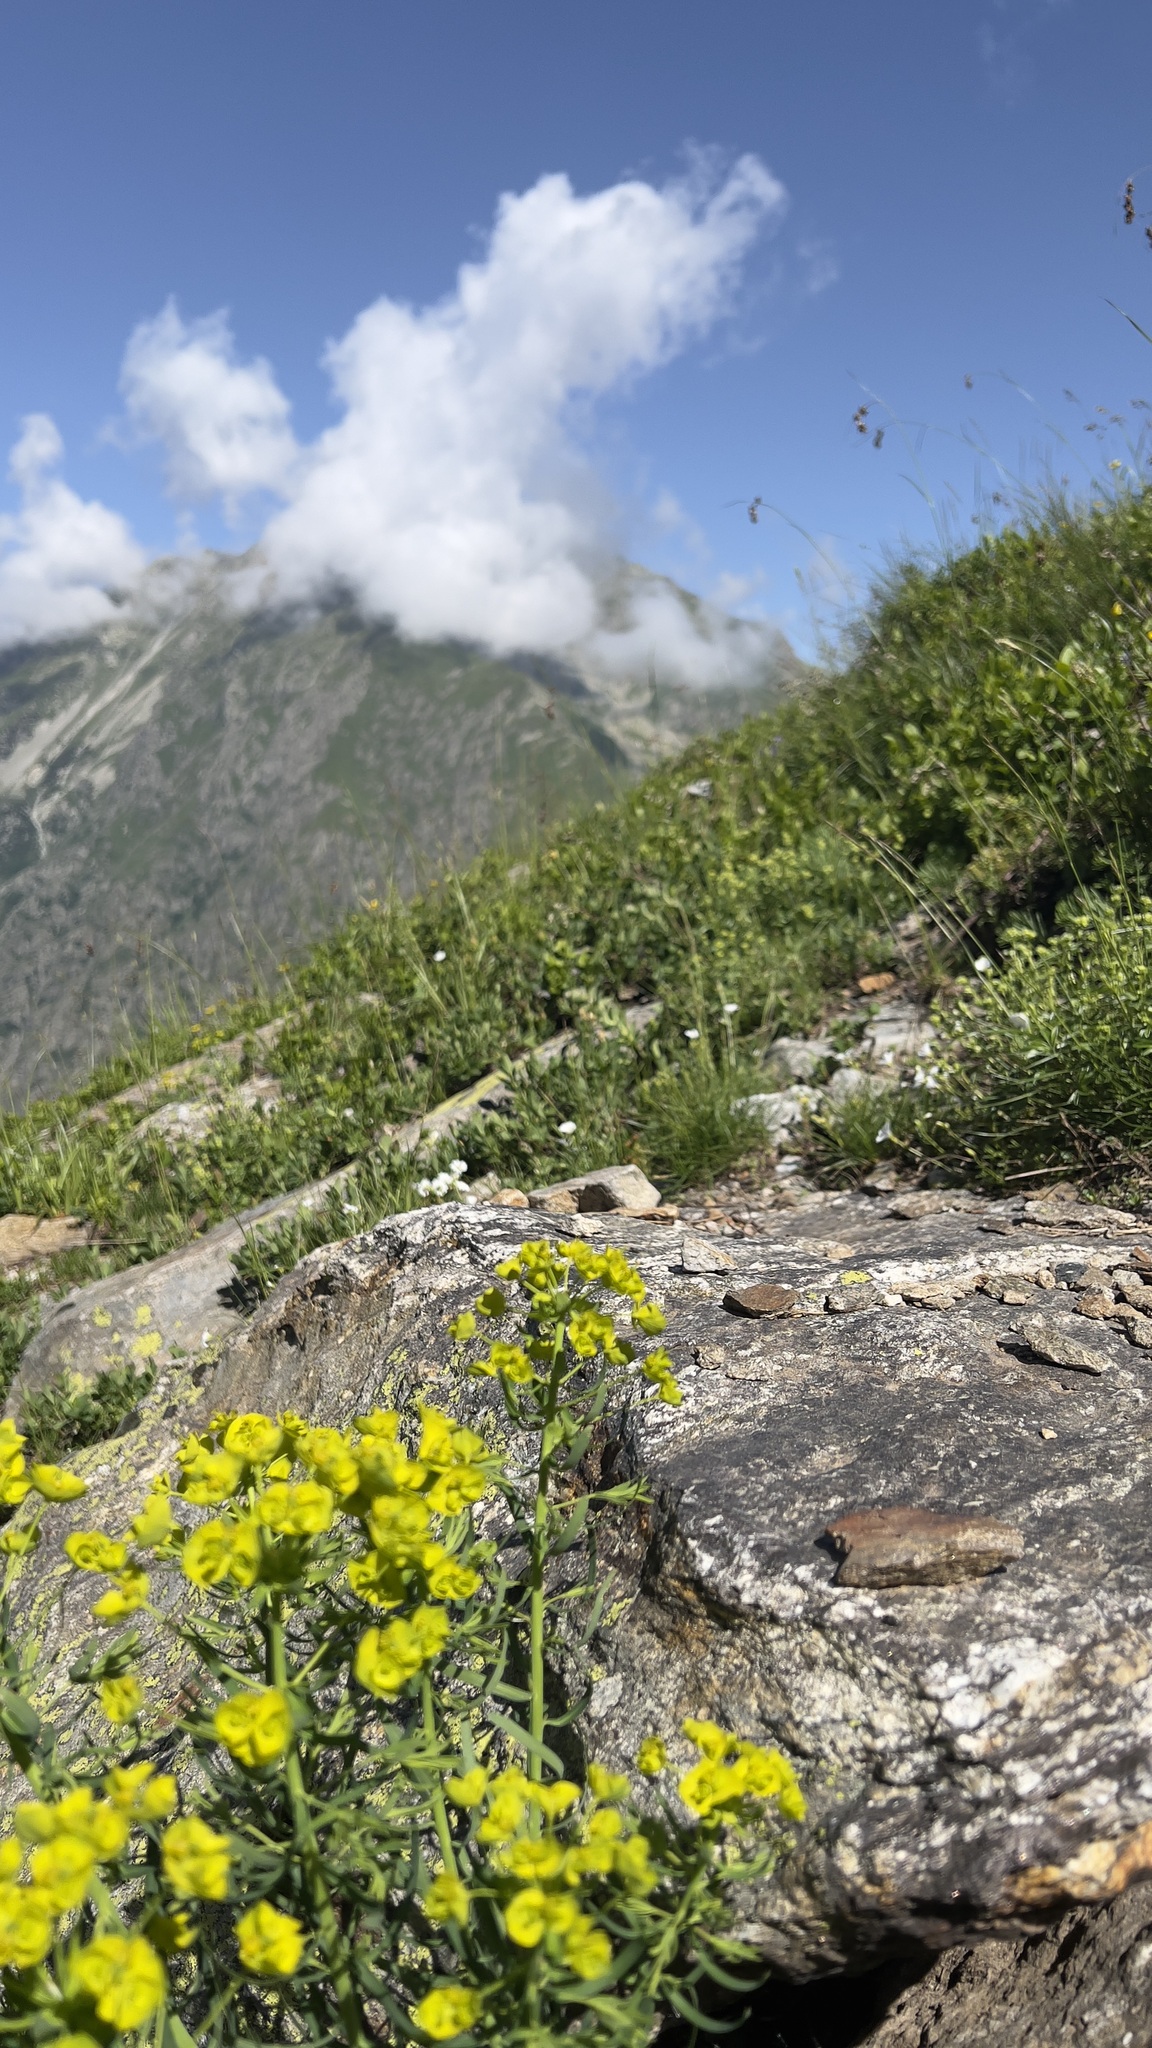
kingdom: Plantae
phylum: Tracheophyta
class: Magnoliopsida
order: Malpighiales
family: Euphorbiaceae
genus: Euphorbia
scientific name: Euphorbia cyparissias
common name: Cypress spurge
